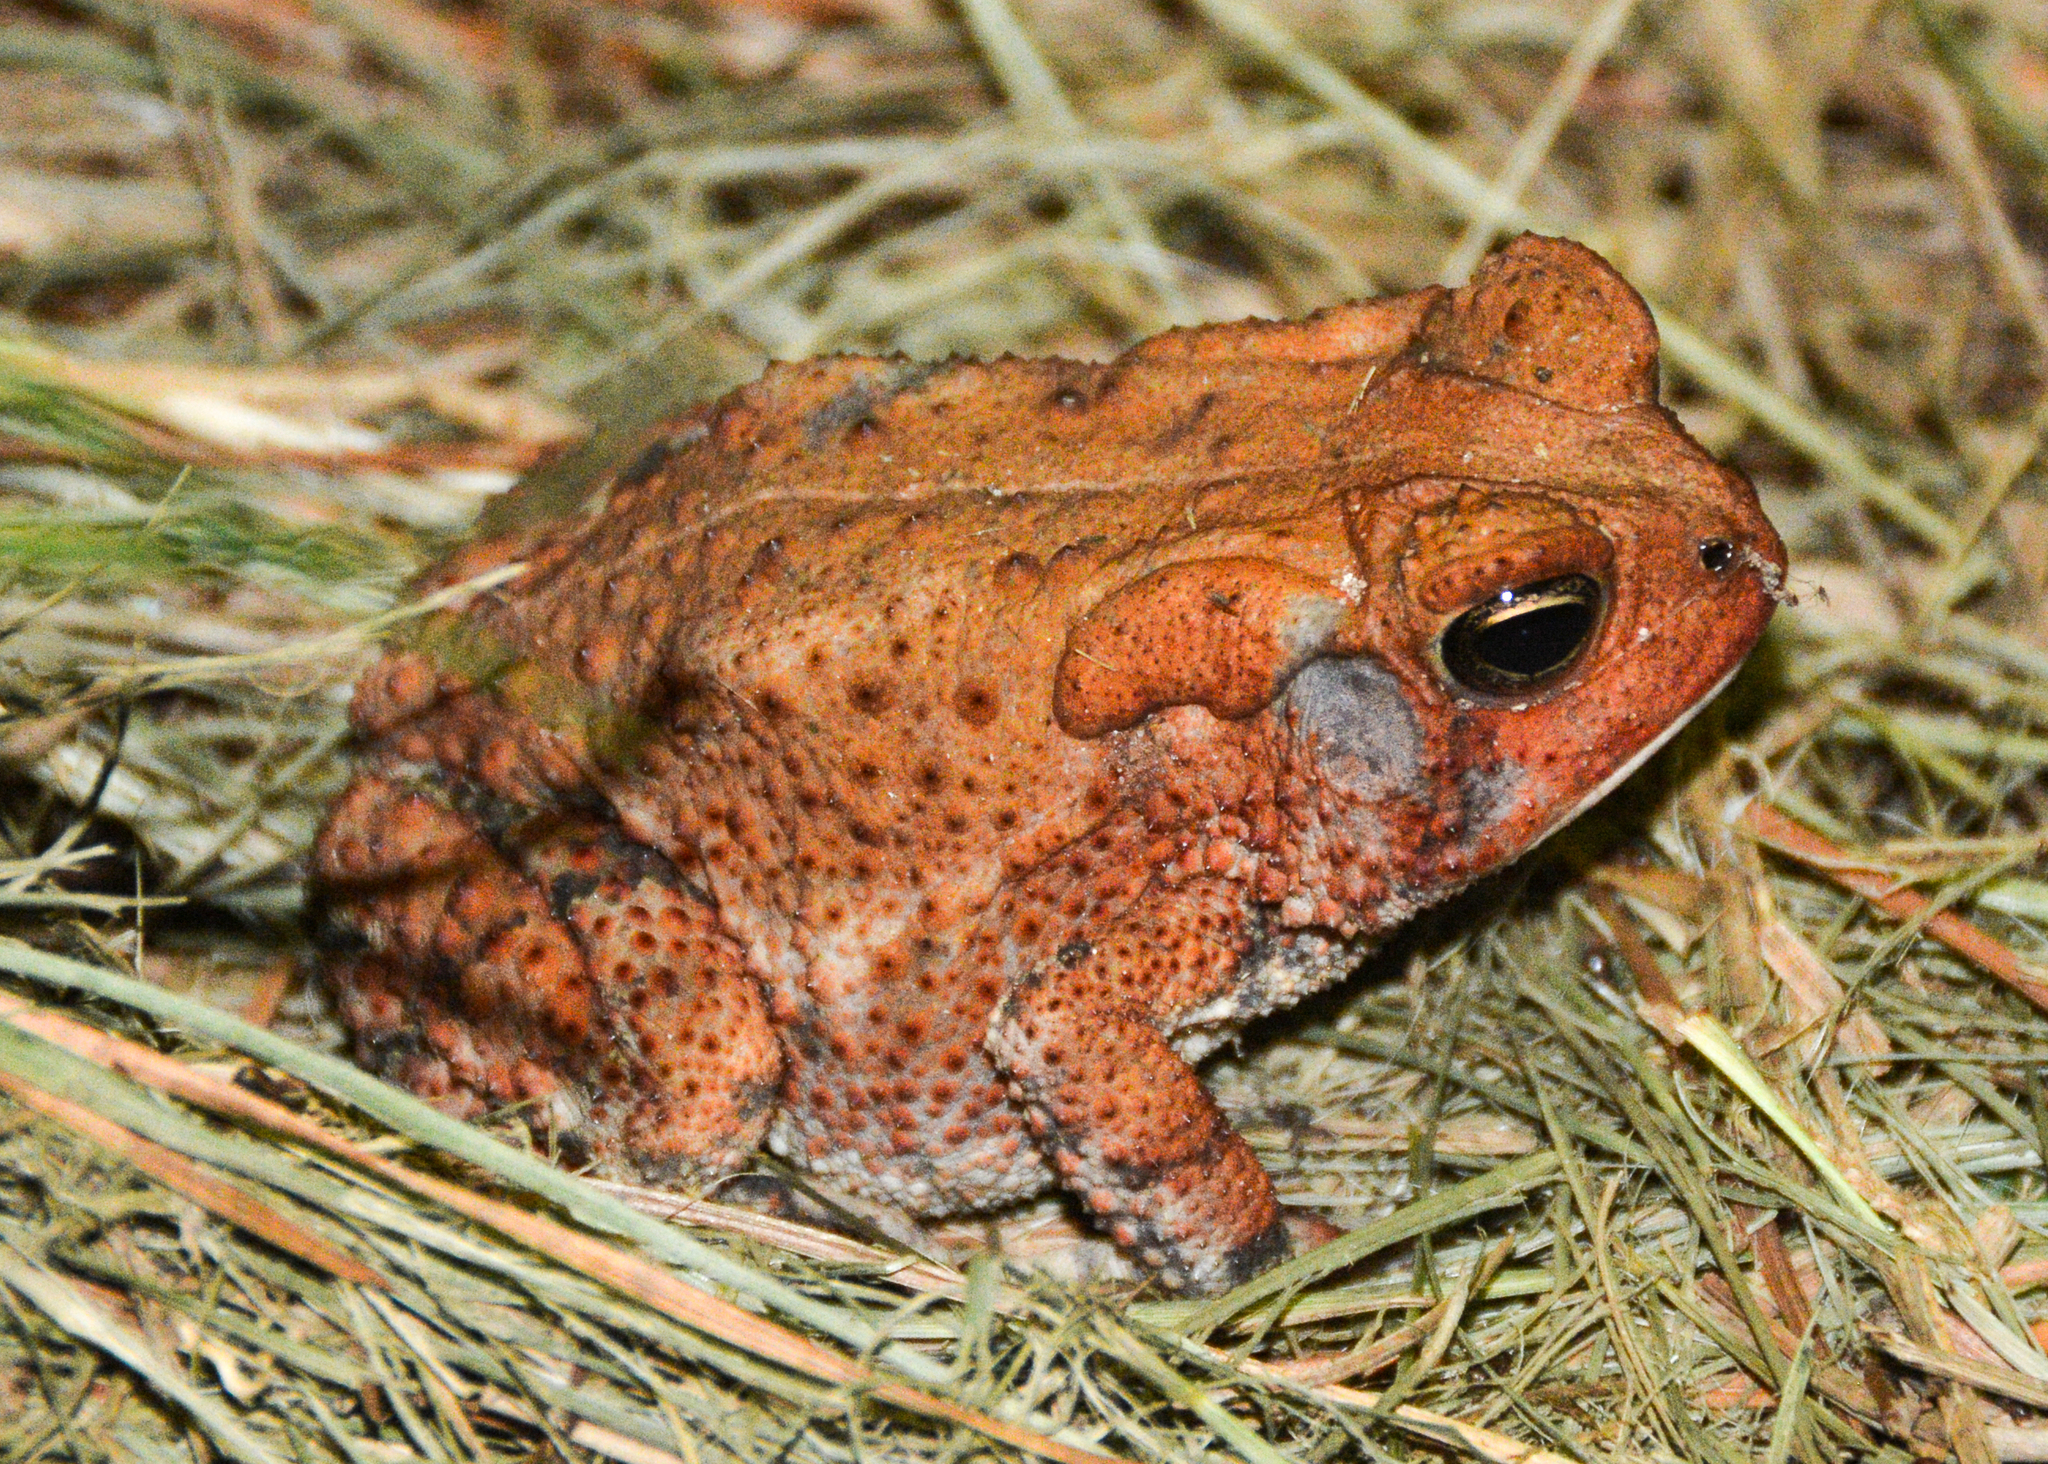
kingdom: Animalia
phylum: Chordata
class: Amphibia
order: Anura
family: Bufonidae
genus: Anaxyrus
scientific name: Anaxyrus fowleri
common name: Fowler's toad
